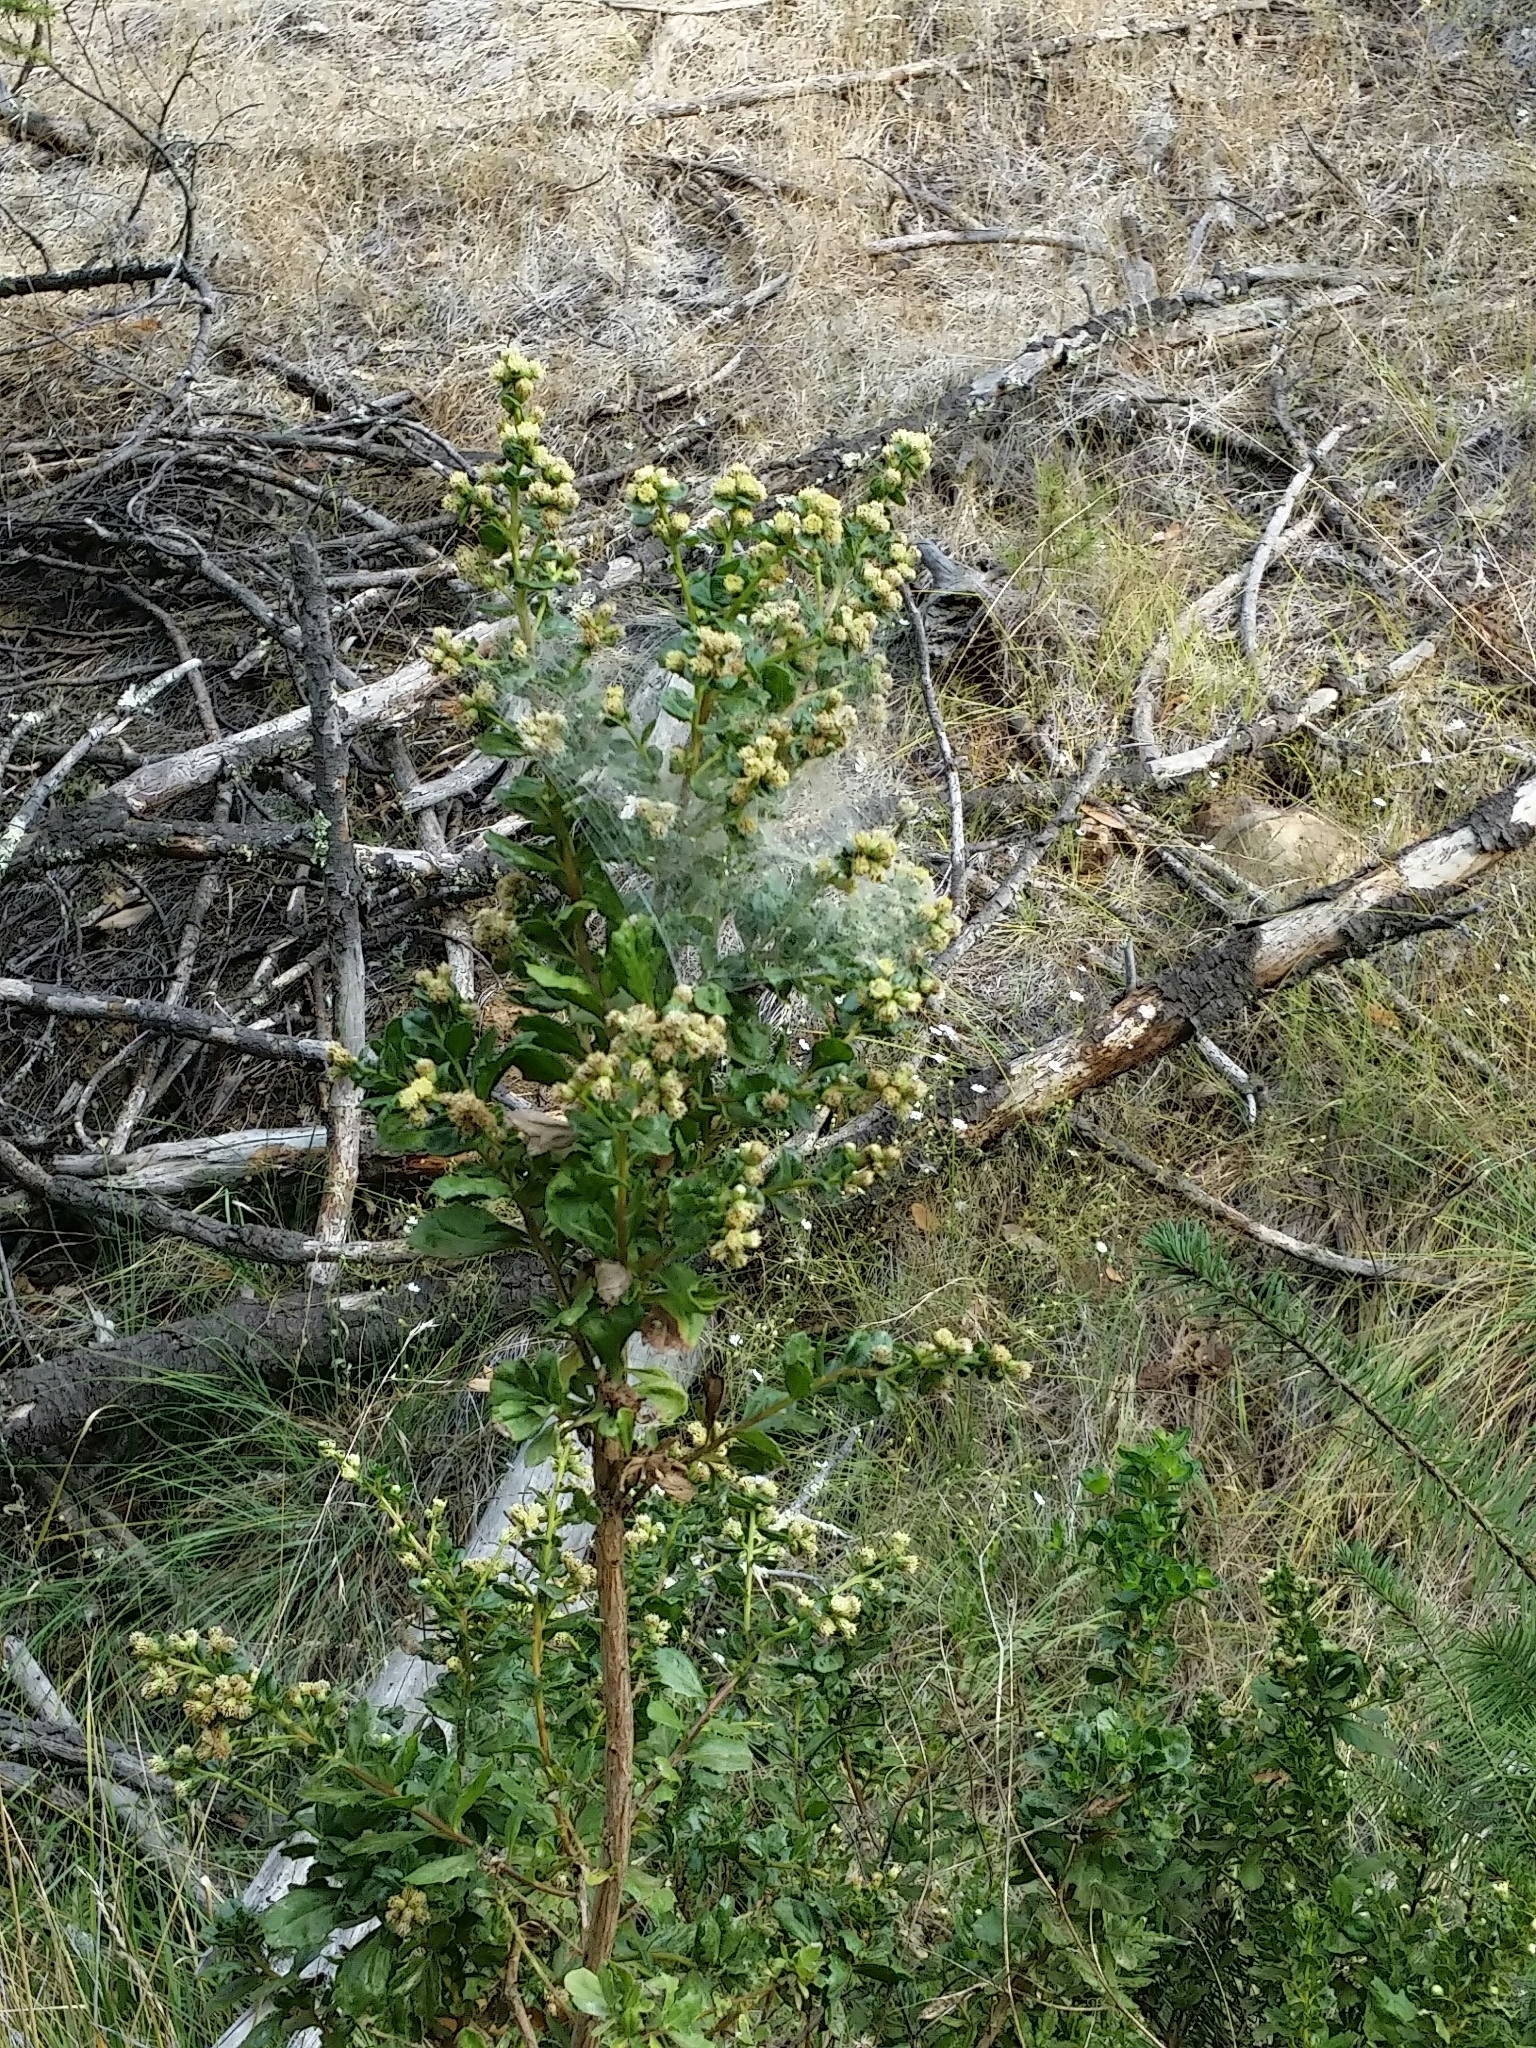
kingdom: Plantae
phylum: Tracheophyta
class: Magnoliopsida
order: Asterales
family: Asteraceae
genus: Baccharis
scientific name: Baccharis pilularis
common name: Coyotebrush
